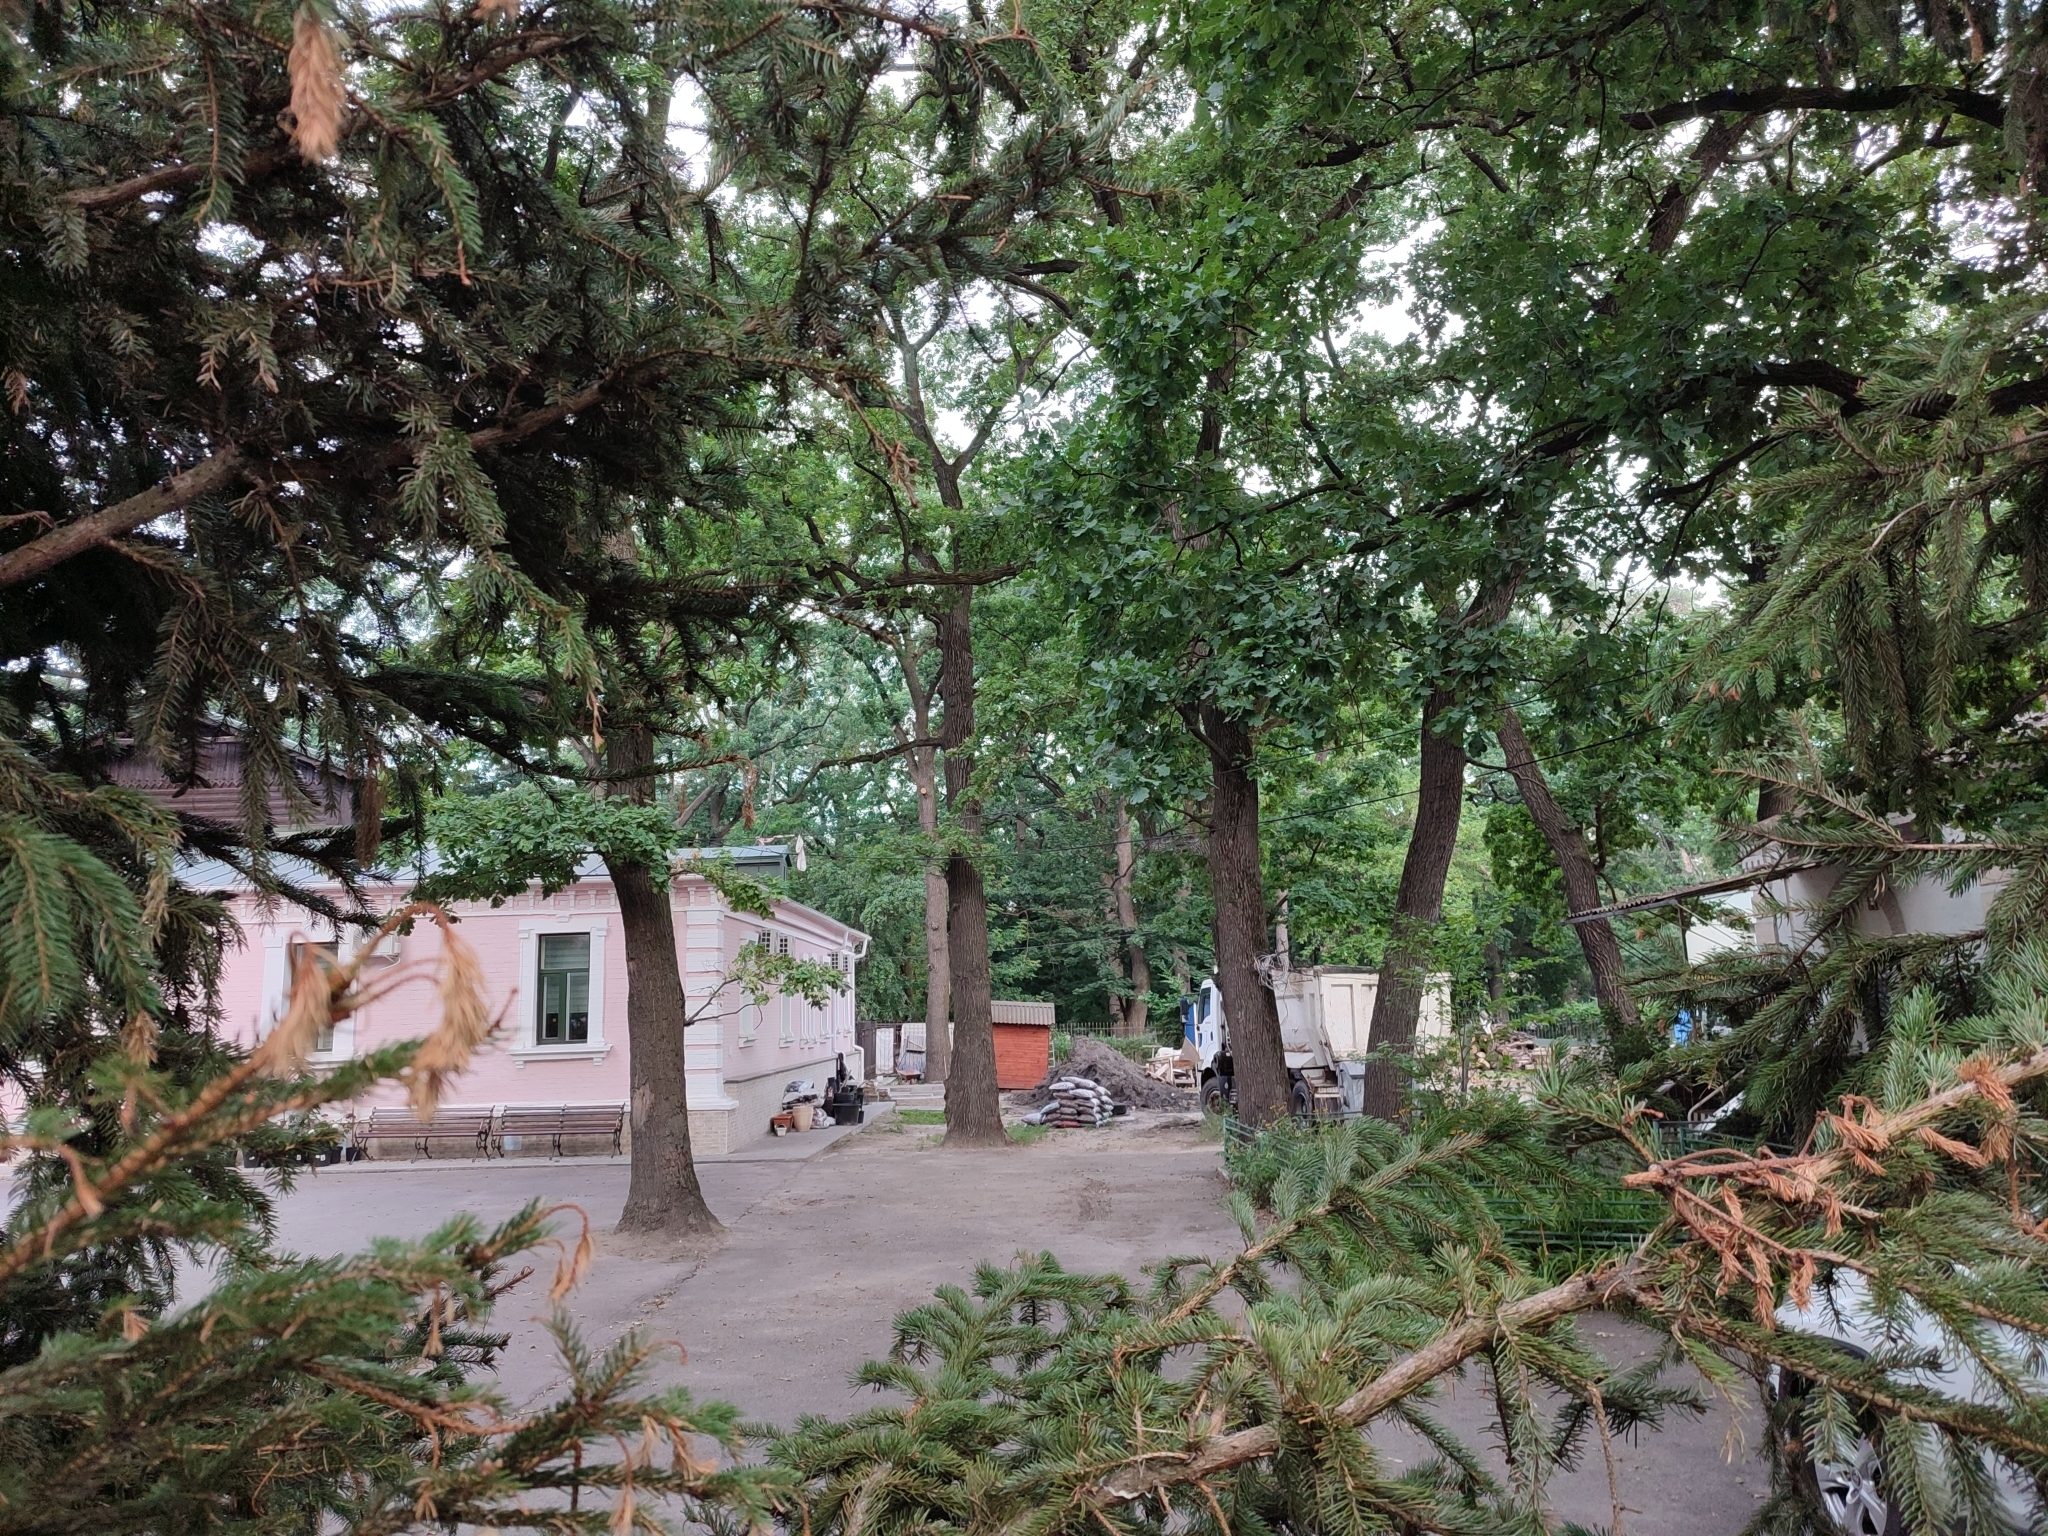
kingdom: Plantae
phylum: Tracheophyta
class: Magnoliopsida
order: Fagales
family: Fagaceae
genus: Quercus
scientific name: Quercus robur
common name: Pedunculate oak
